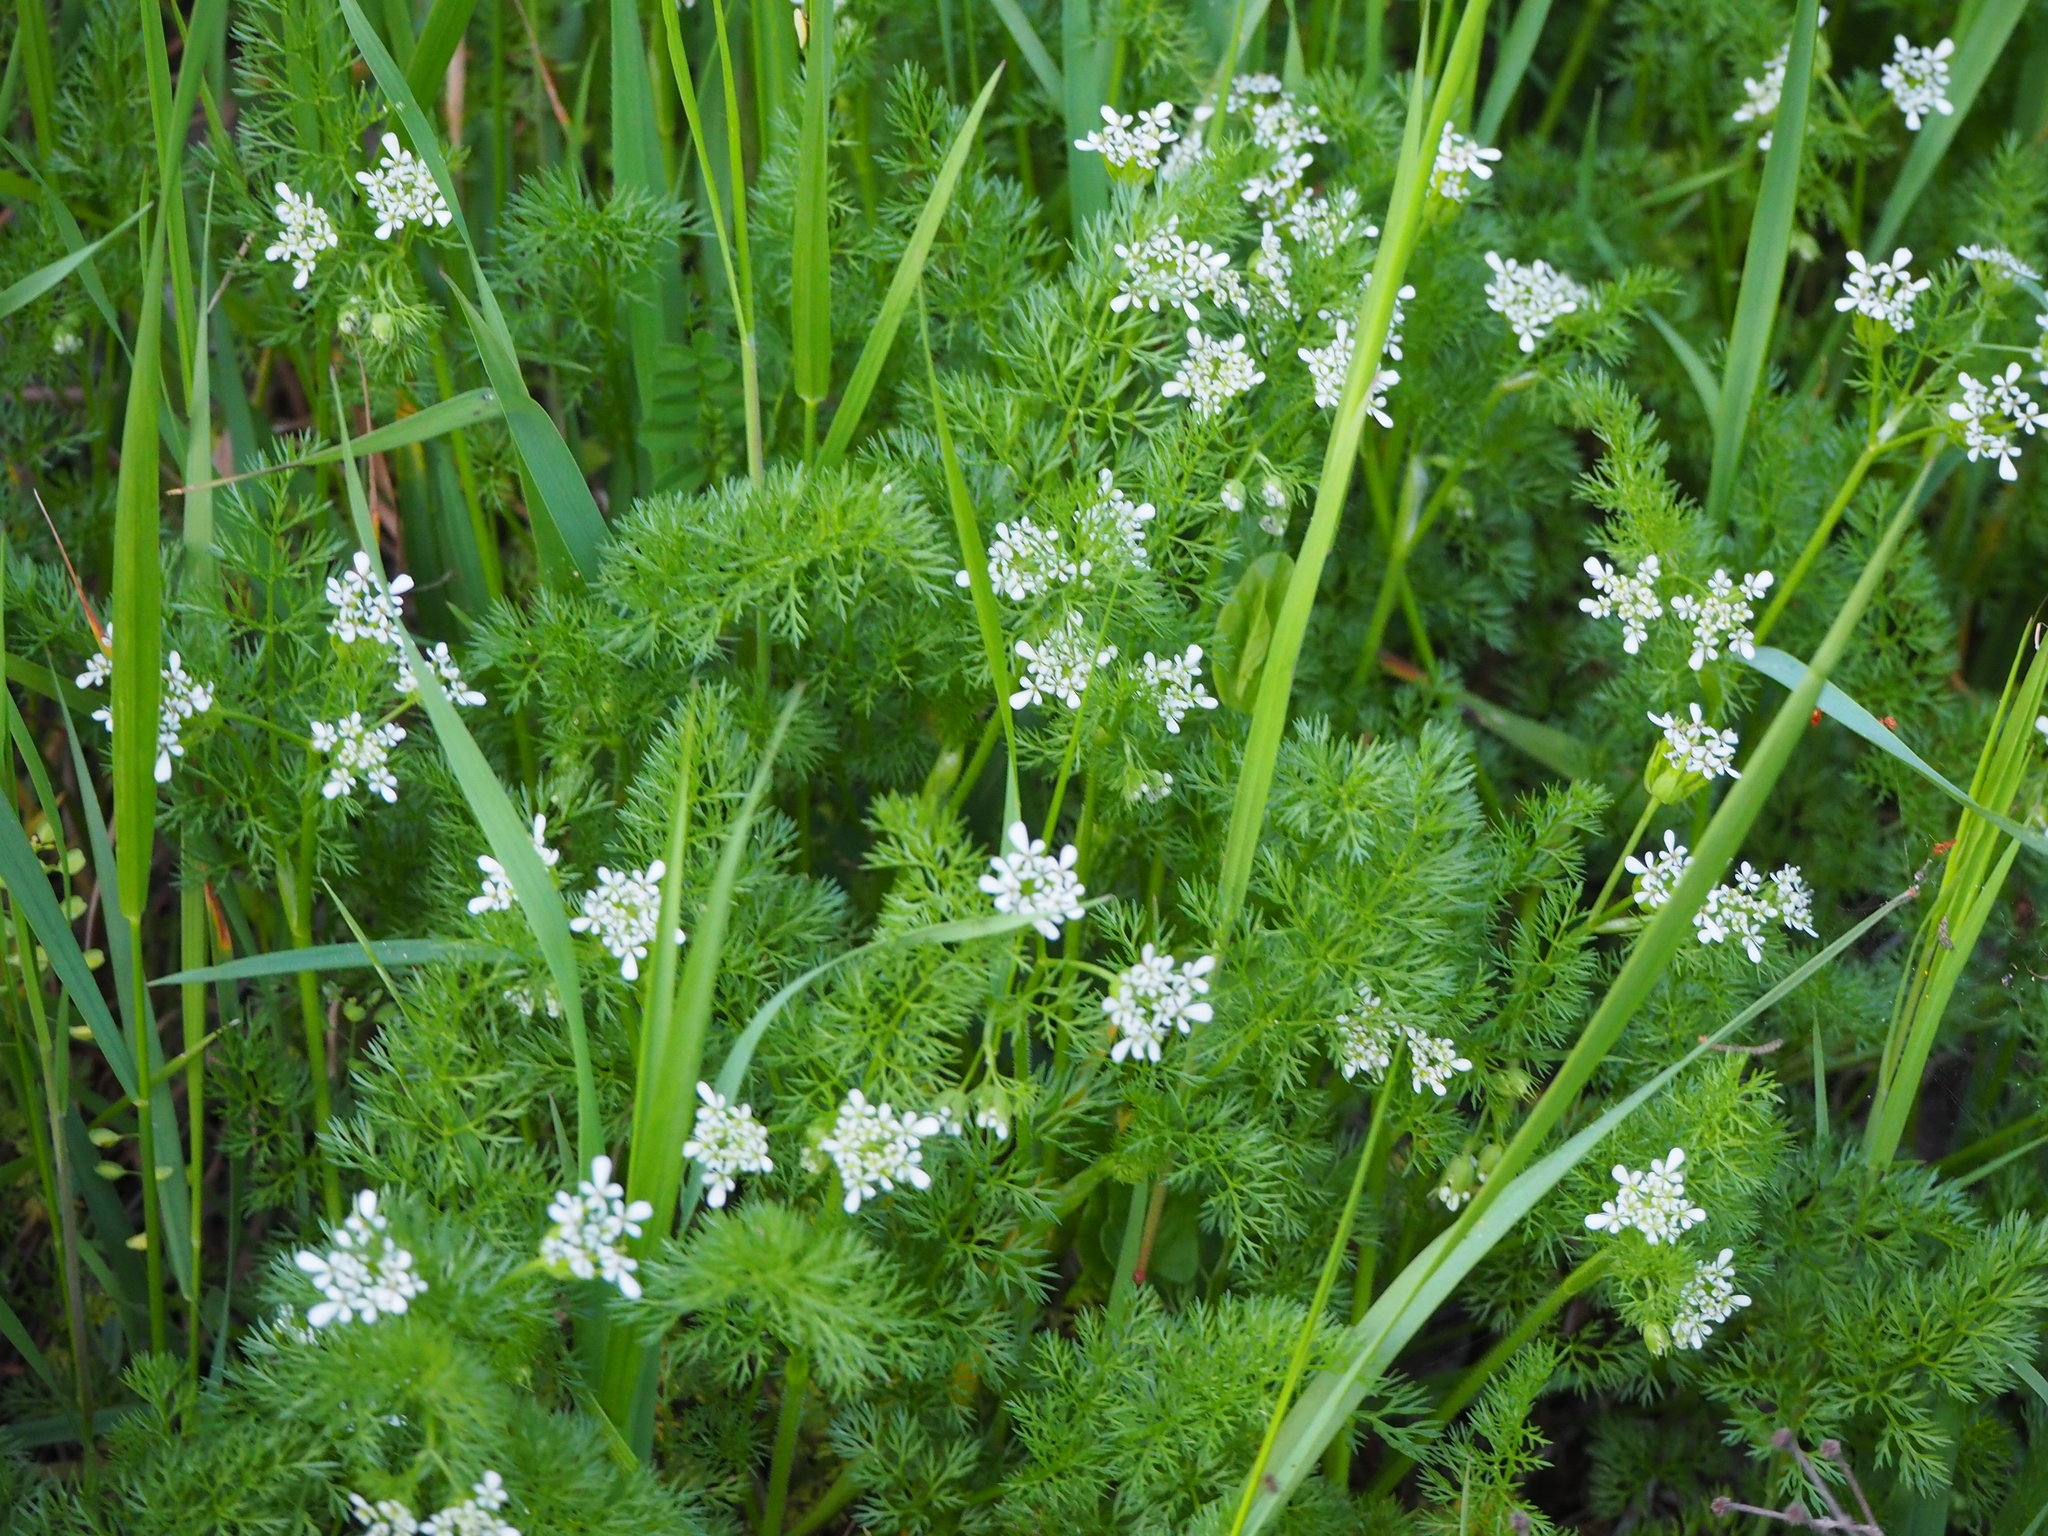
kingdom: Plantae
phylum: Tracheophyta
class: Magnoliopsida
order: Apiales
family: Apiaceae
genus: Scandix
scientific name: Scandix pecten-veneris
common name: Shepherd's-needle
